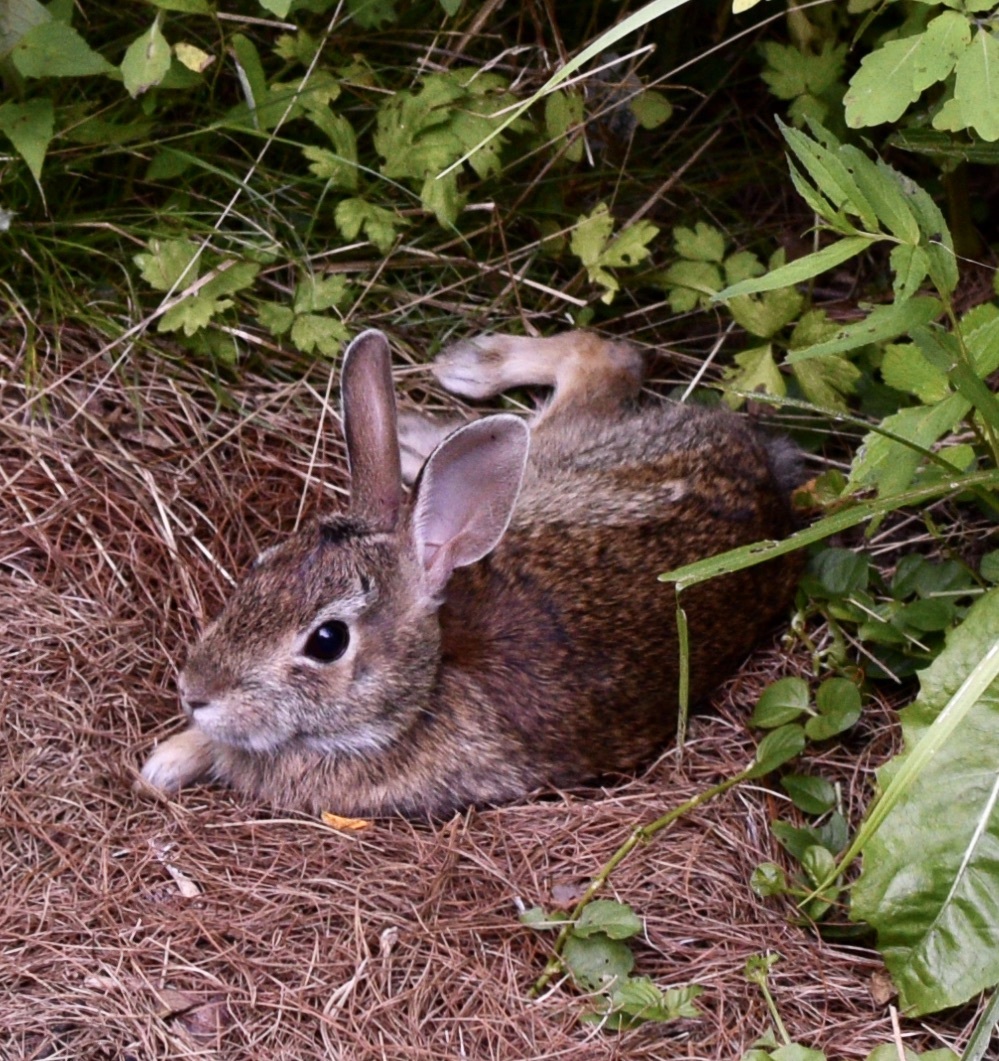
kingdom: Animalia
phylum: Chordata
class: Mammalia
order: Lagomorpha
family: Leporidae
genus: Sylvilagus
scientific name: Sylvilagus floridanus
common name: Eastern cottontail
